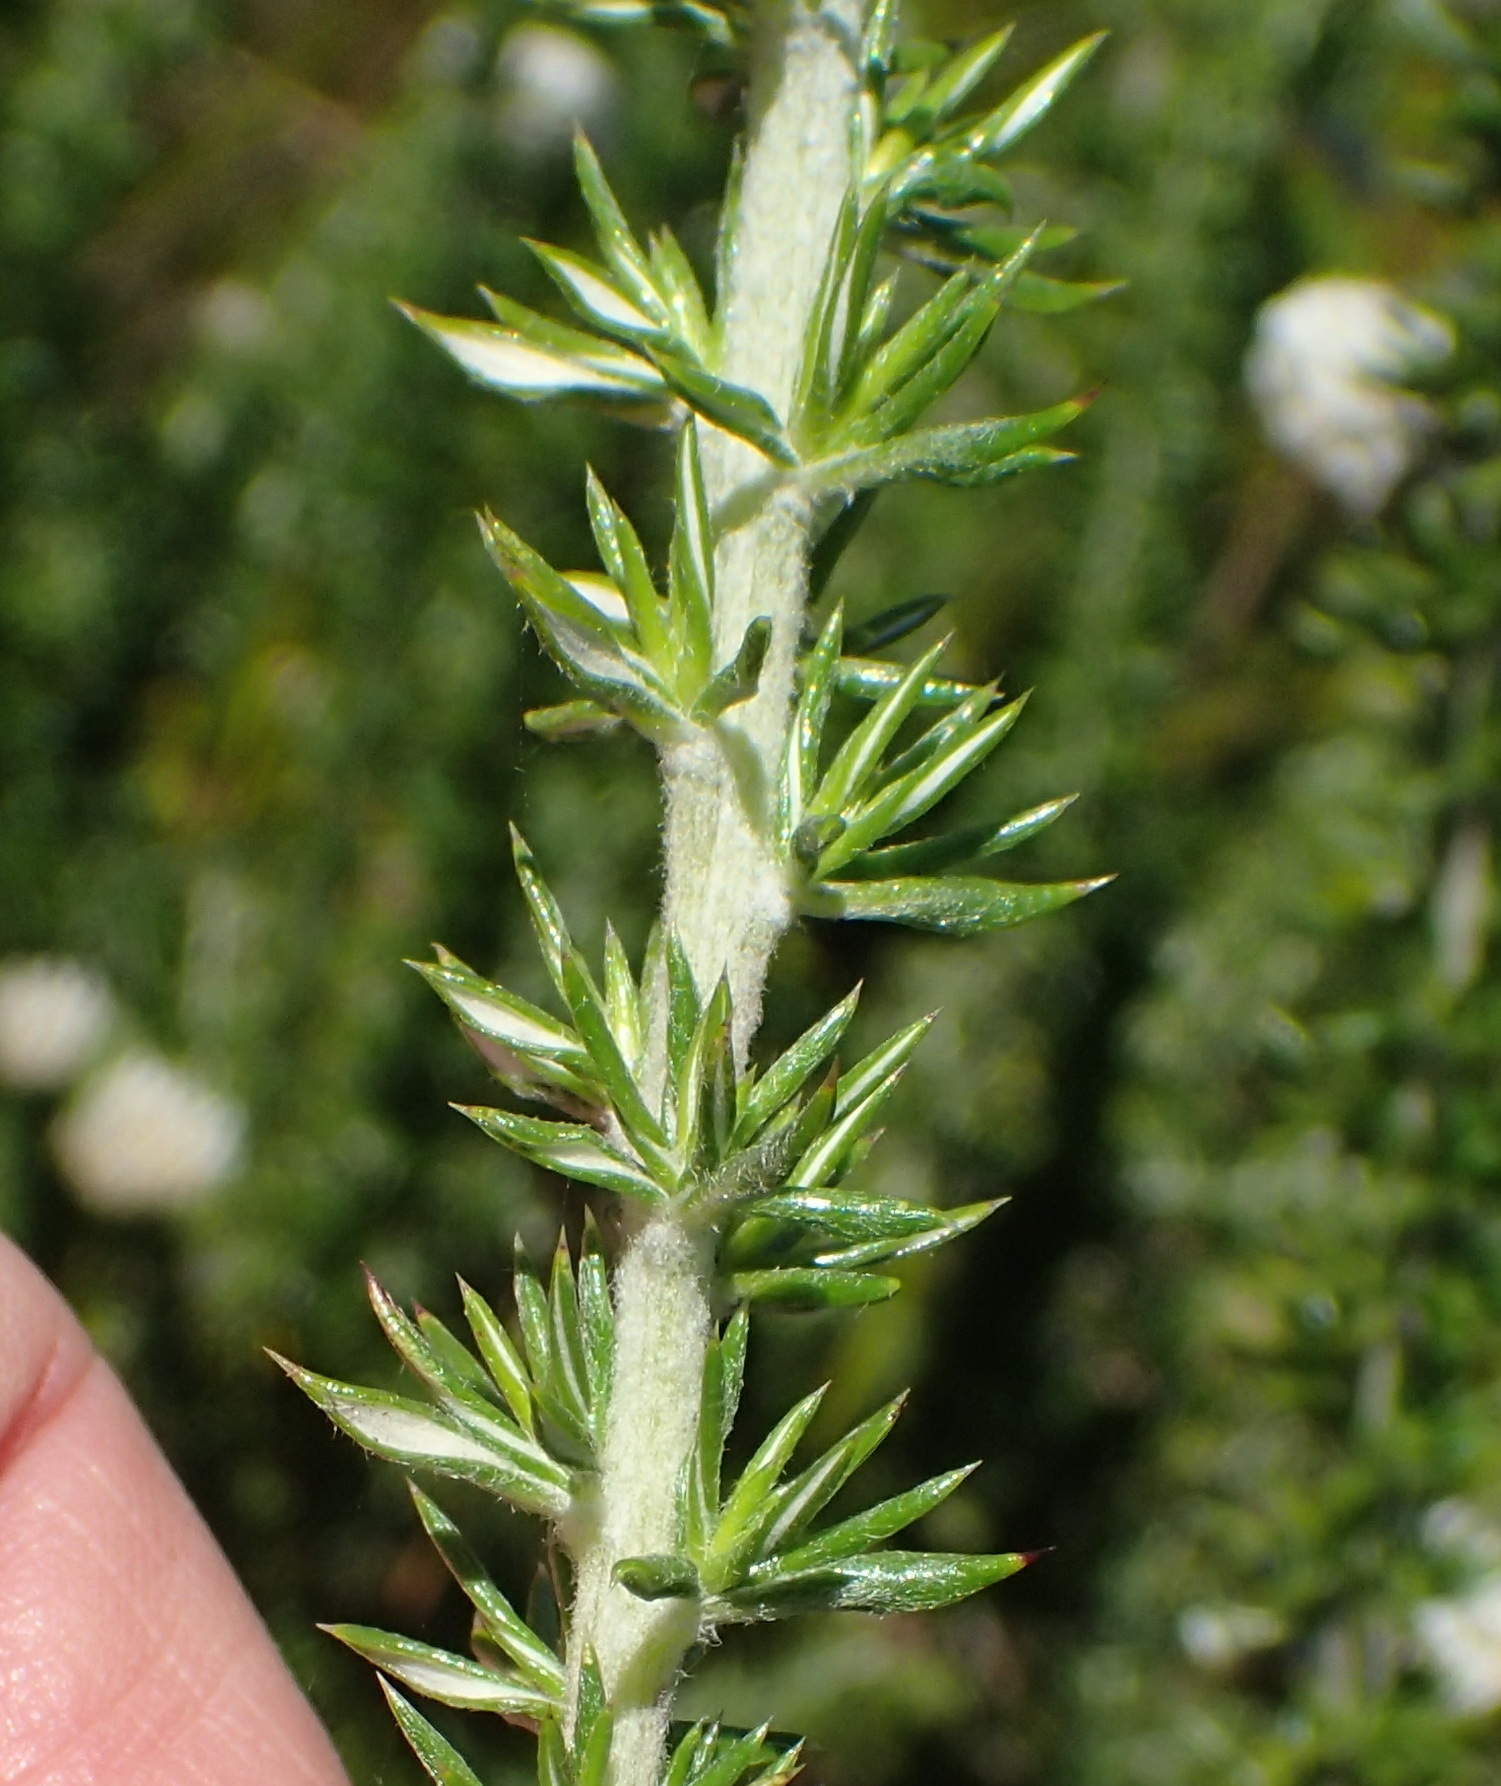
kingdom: Plantae
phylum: Tracheophyta
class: Magnoliopsida
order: Asterales
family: Asteraceae
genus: Metalasia
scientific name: Metalasia densa
